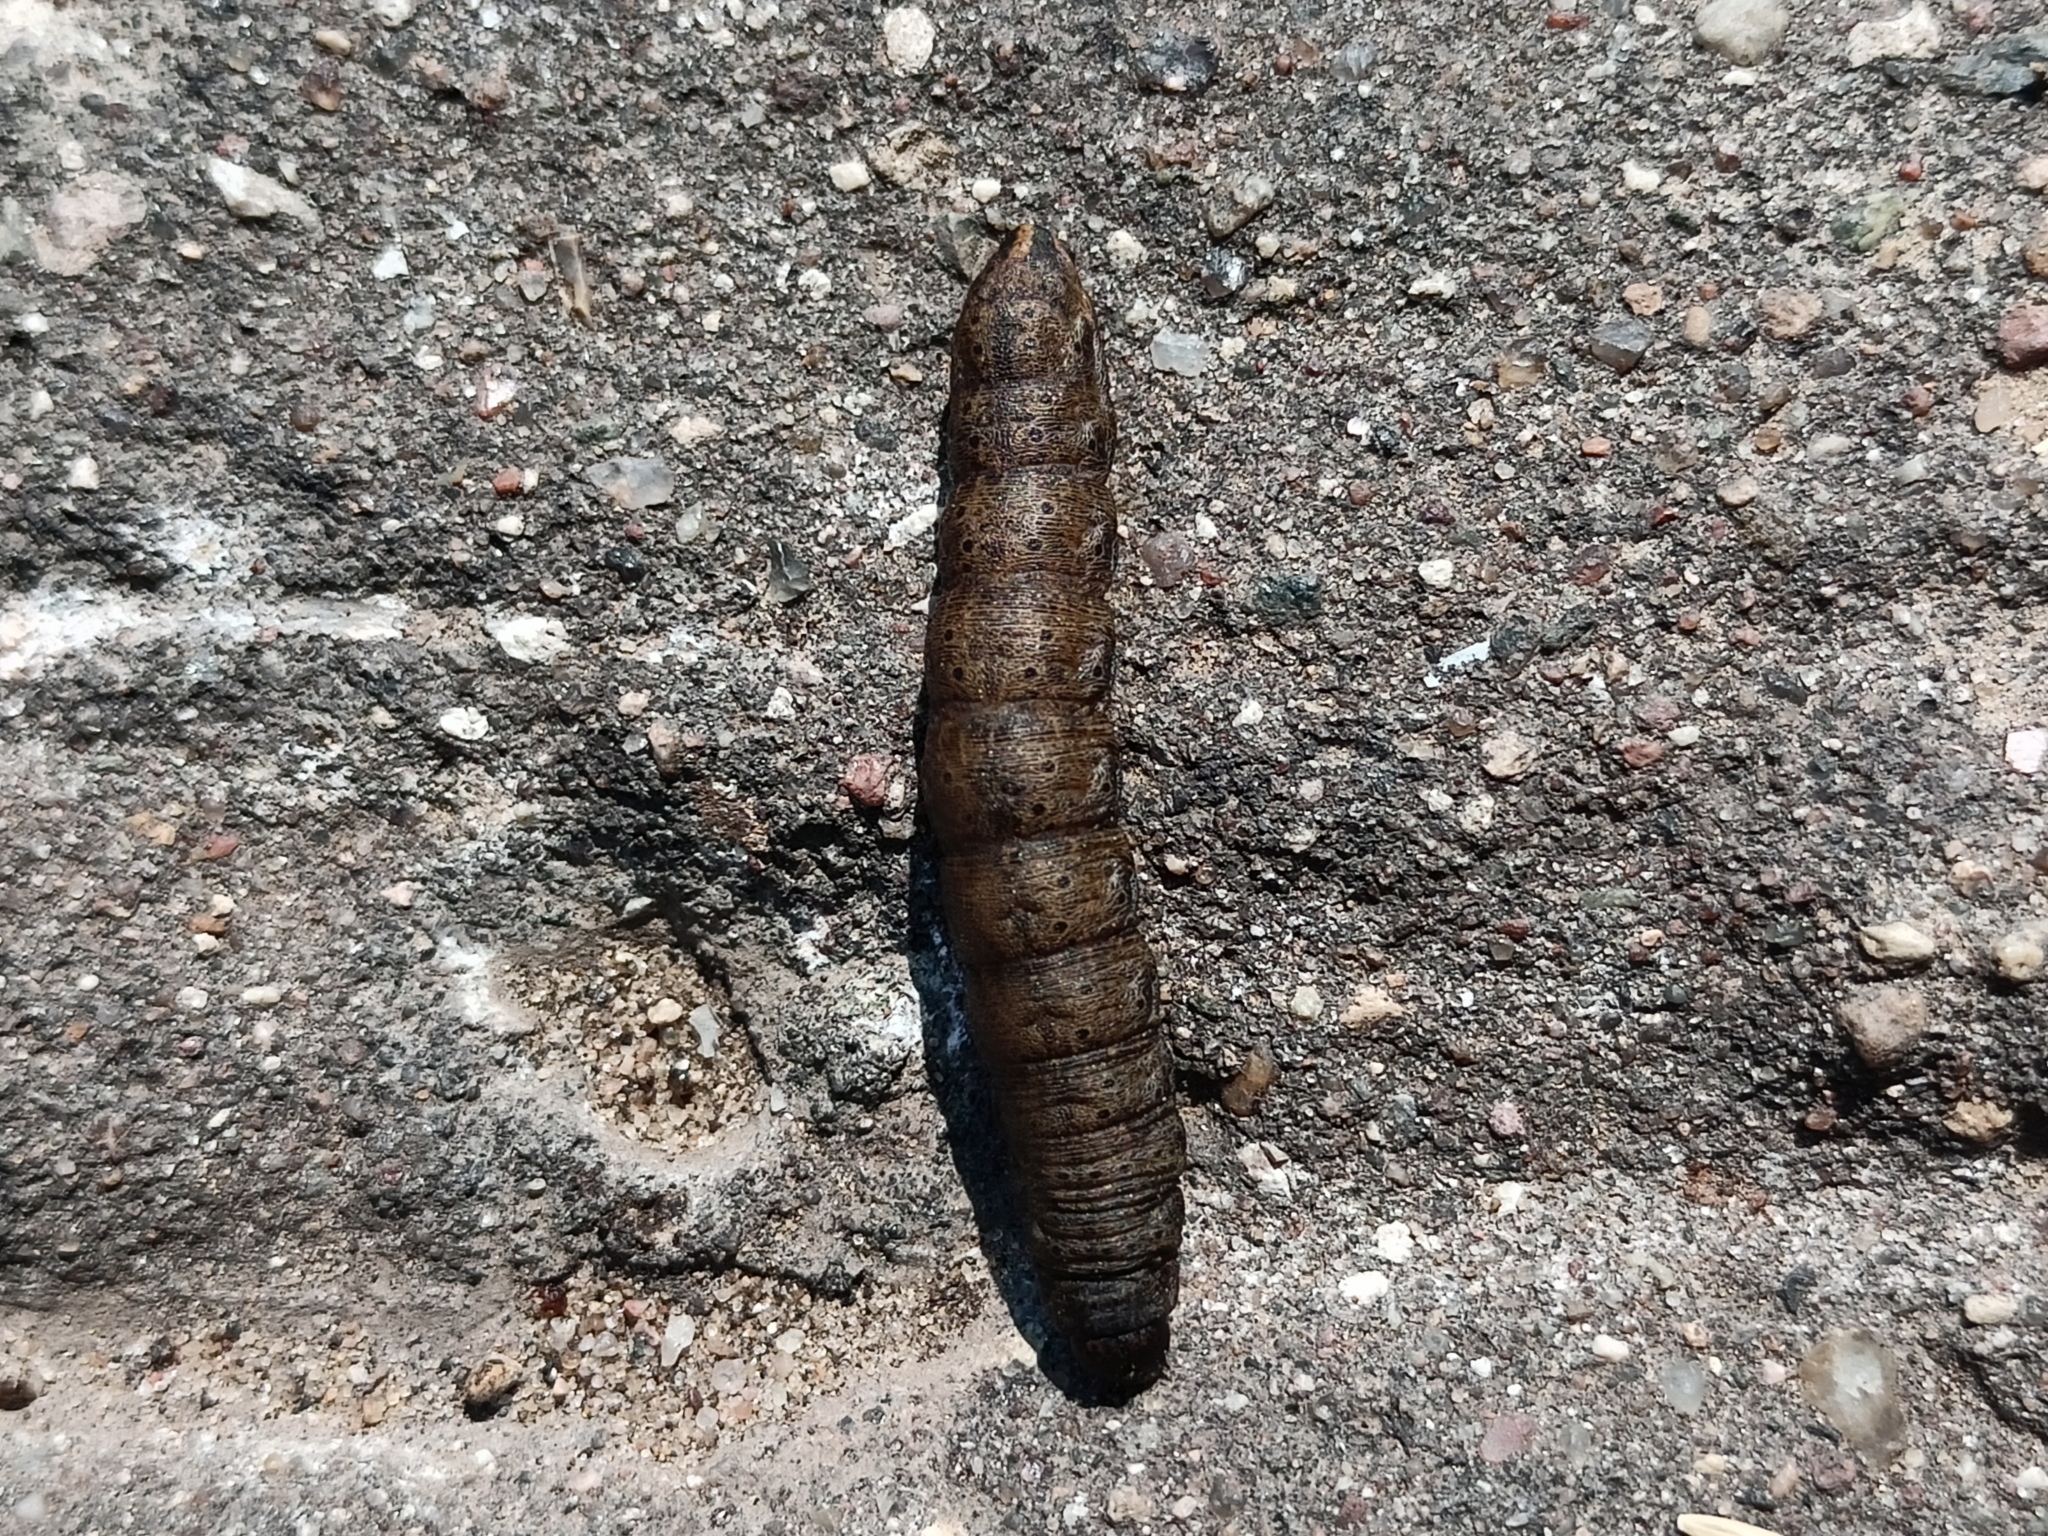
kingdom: Animalia
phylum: Arthropoda
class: Insecta
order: Lepidoptera
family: Noctuidae
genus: Cucullia
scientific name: Cucullia umbratica
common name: Shark
